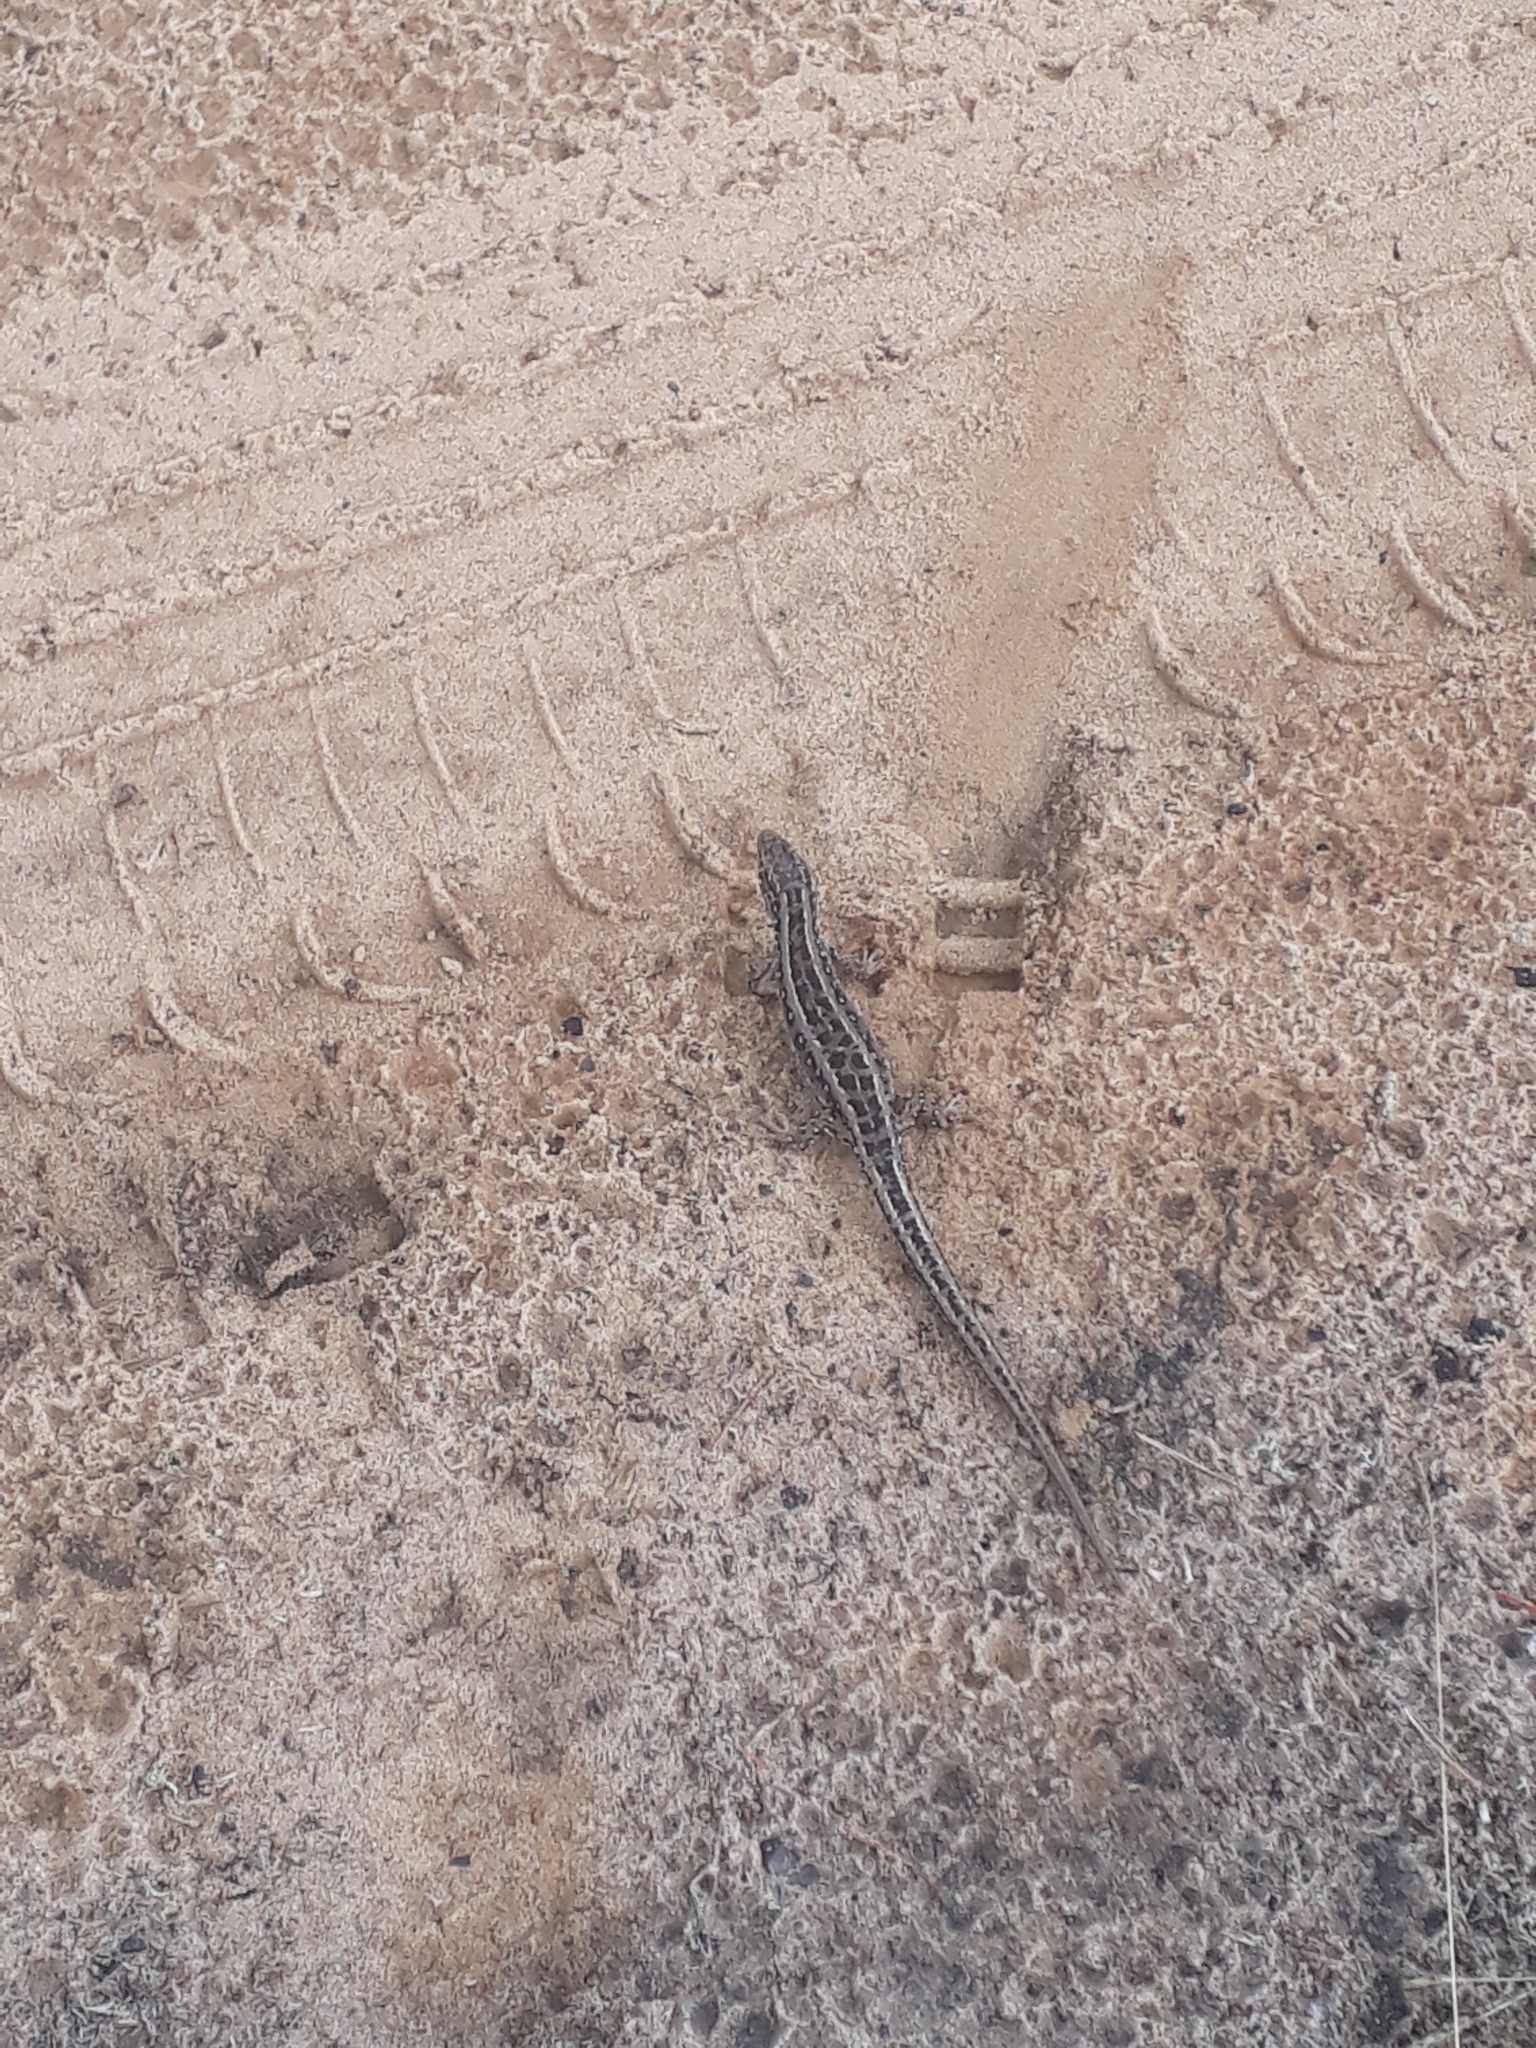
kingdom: Animalia
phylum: Chordata
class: Squamata
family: Lacertidae
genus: Lacerta
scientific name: Lacerta agilis
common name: Sand lizard
